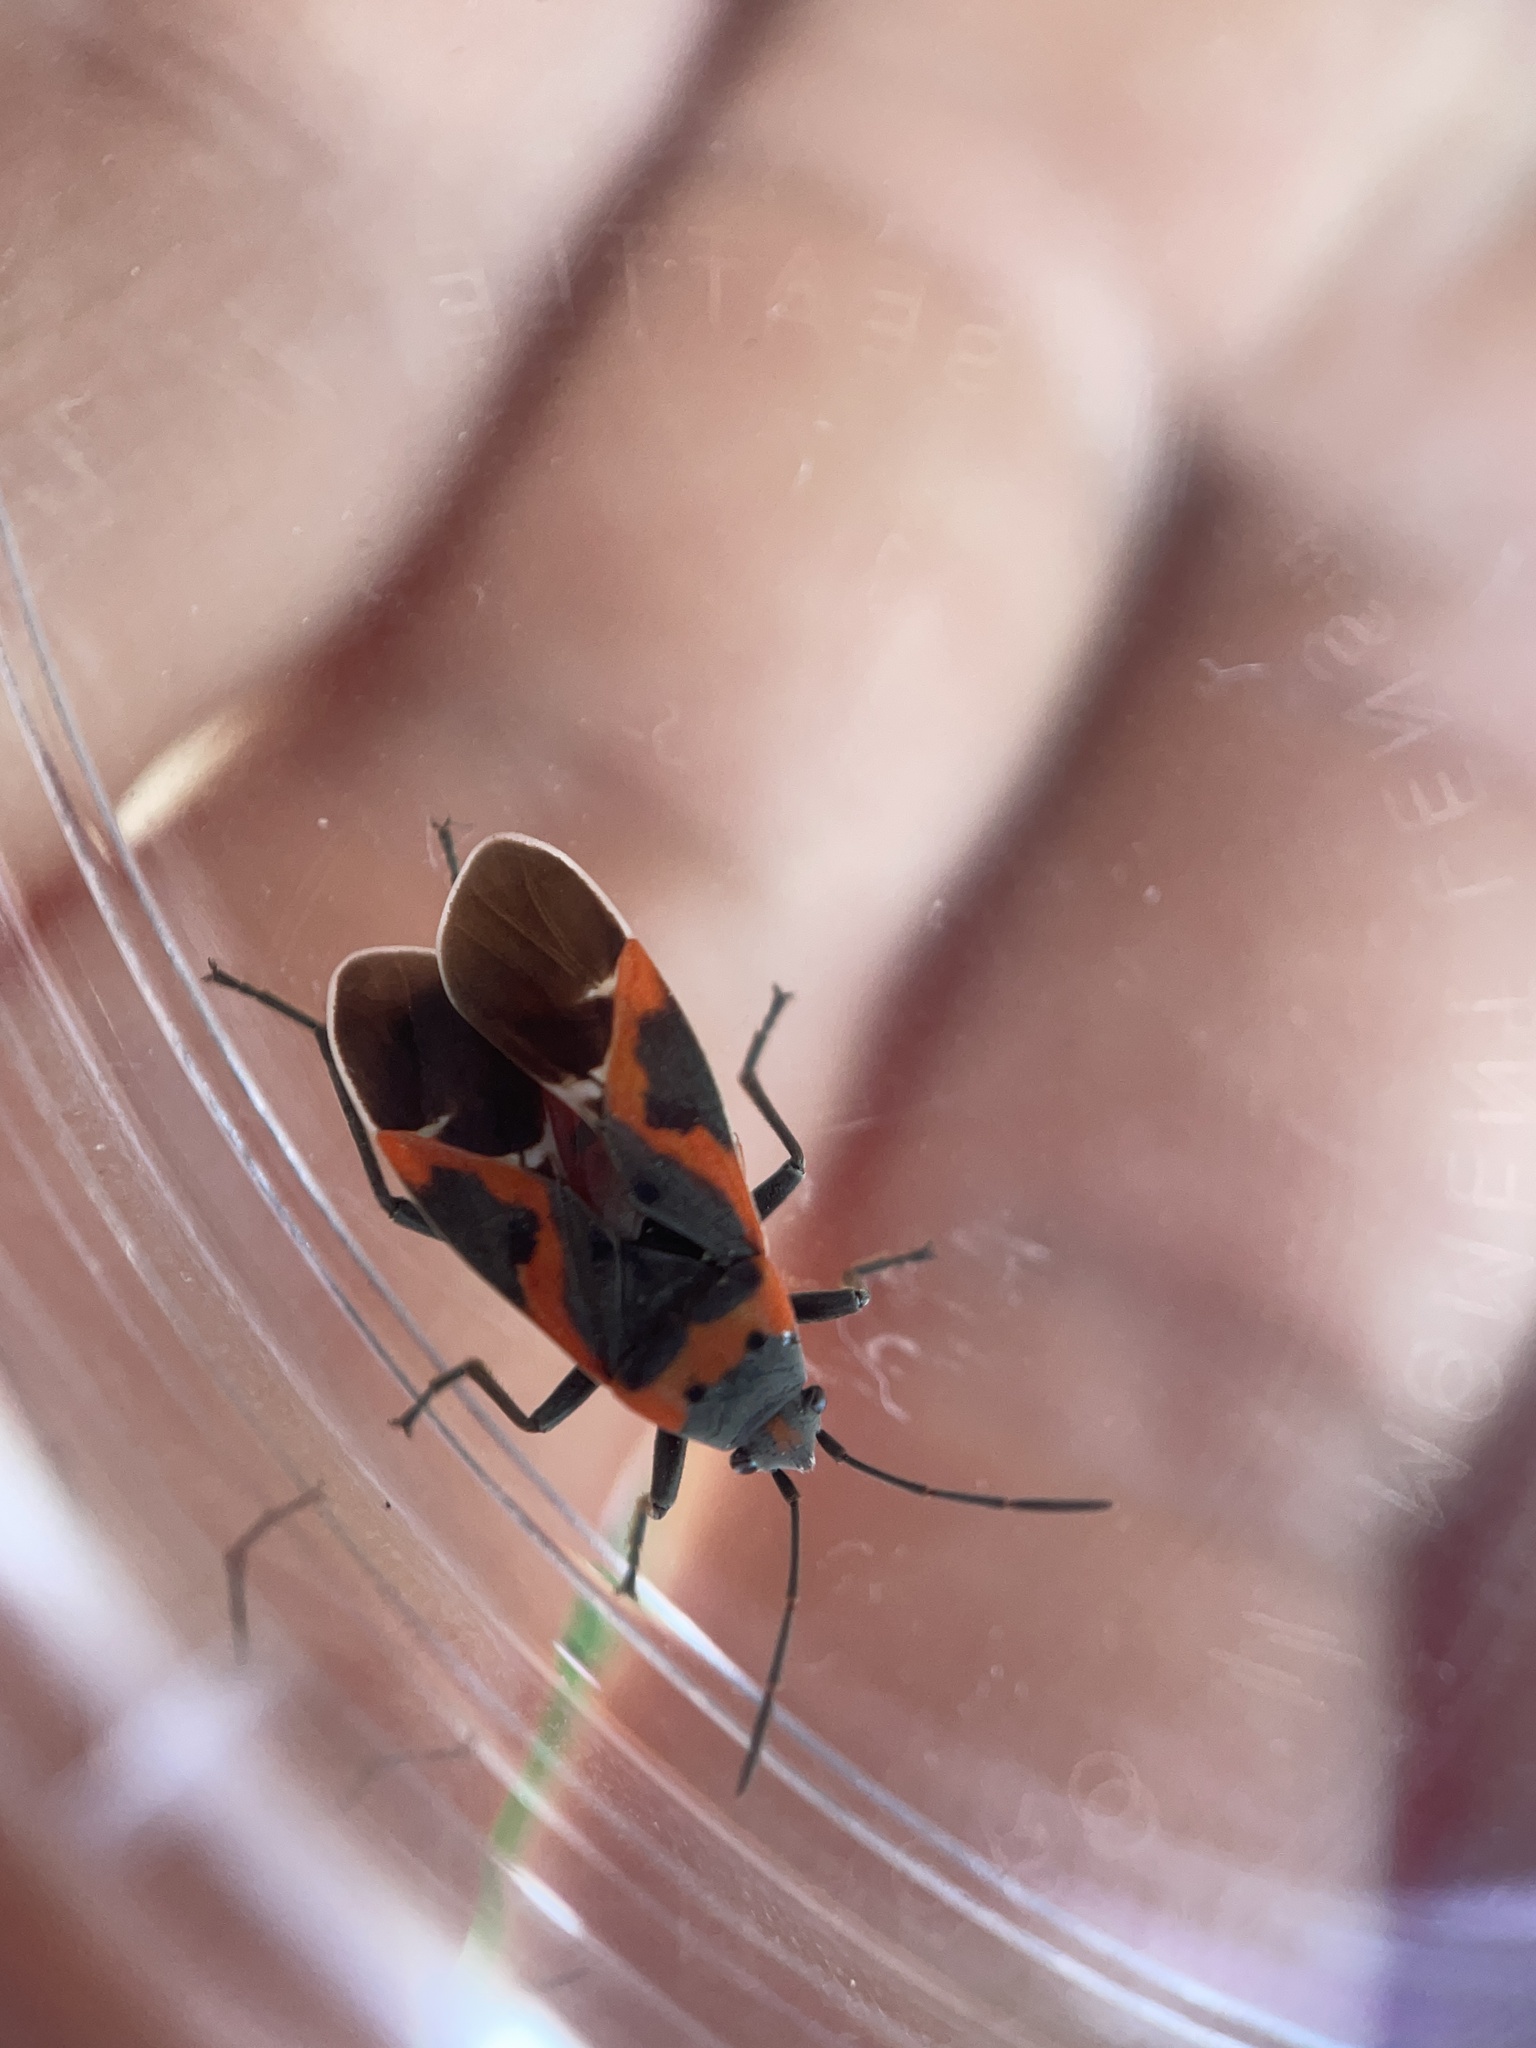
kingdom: Animalia
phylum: Arthropoda
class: Insecta
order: Hemiptera
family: Lygaeidae
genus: Lygaeus
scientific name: Lygaeus kalmii
